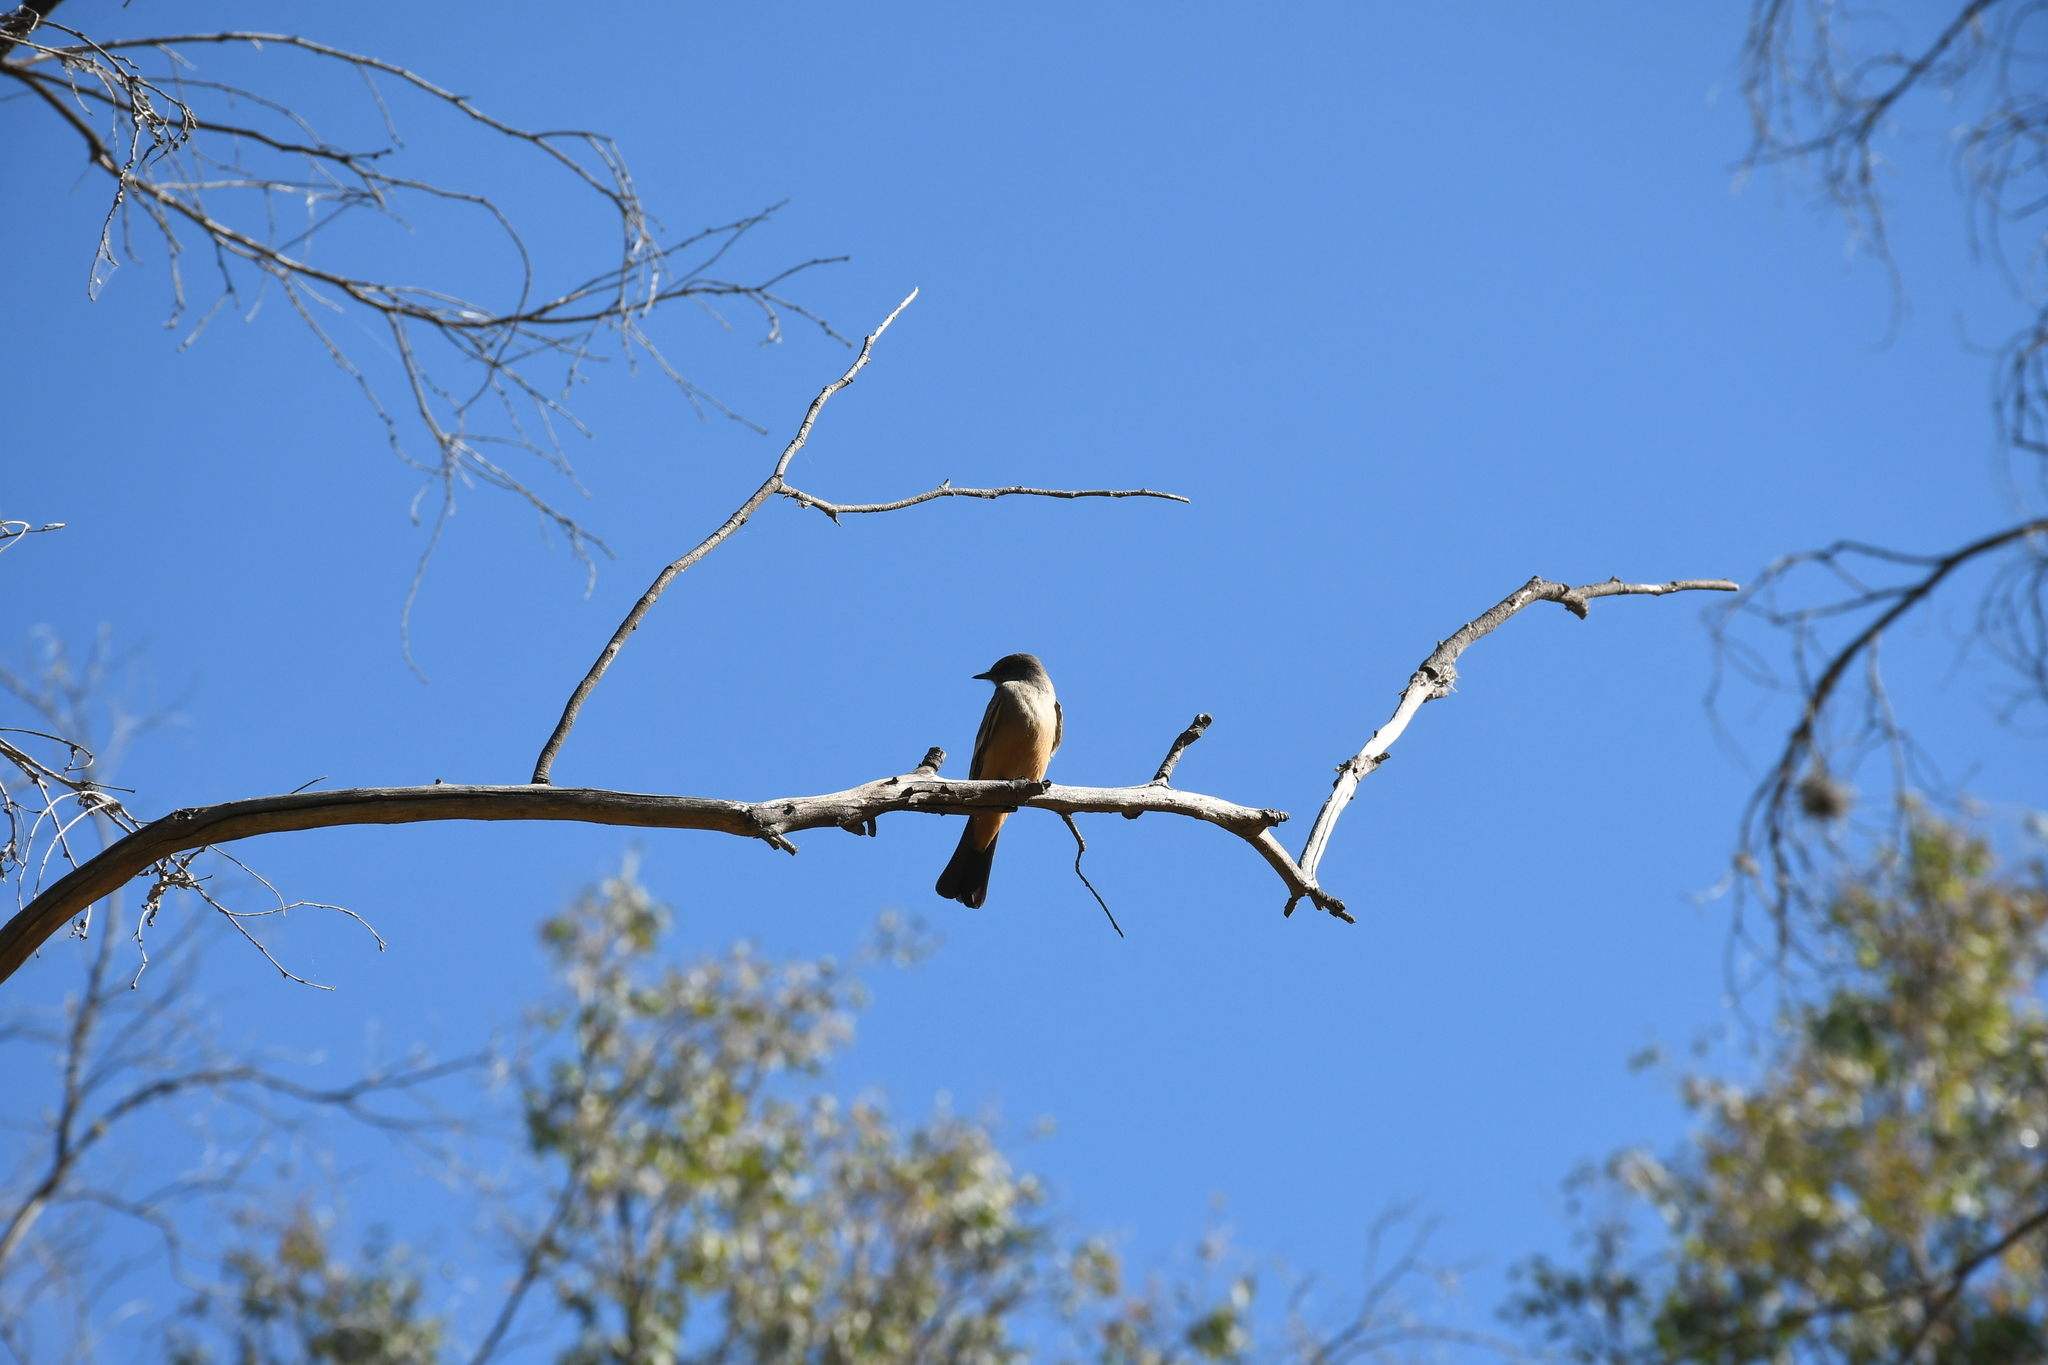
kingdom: Animalia
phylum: Chordata
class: Aves
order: Passeriformes
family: Tyrannidae
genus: Sayornis
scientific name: Sayornis saya
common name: Say's phoebe
